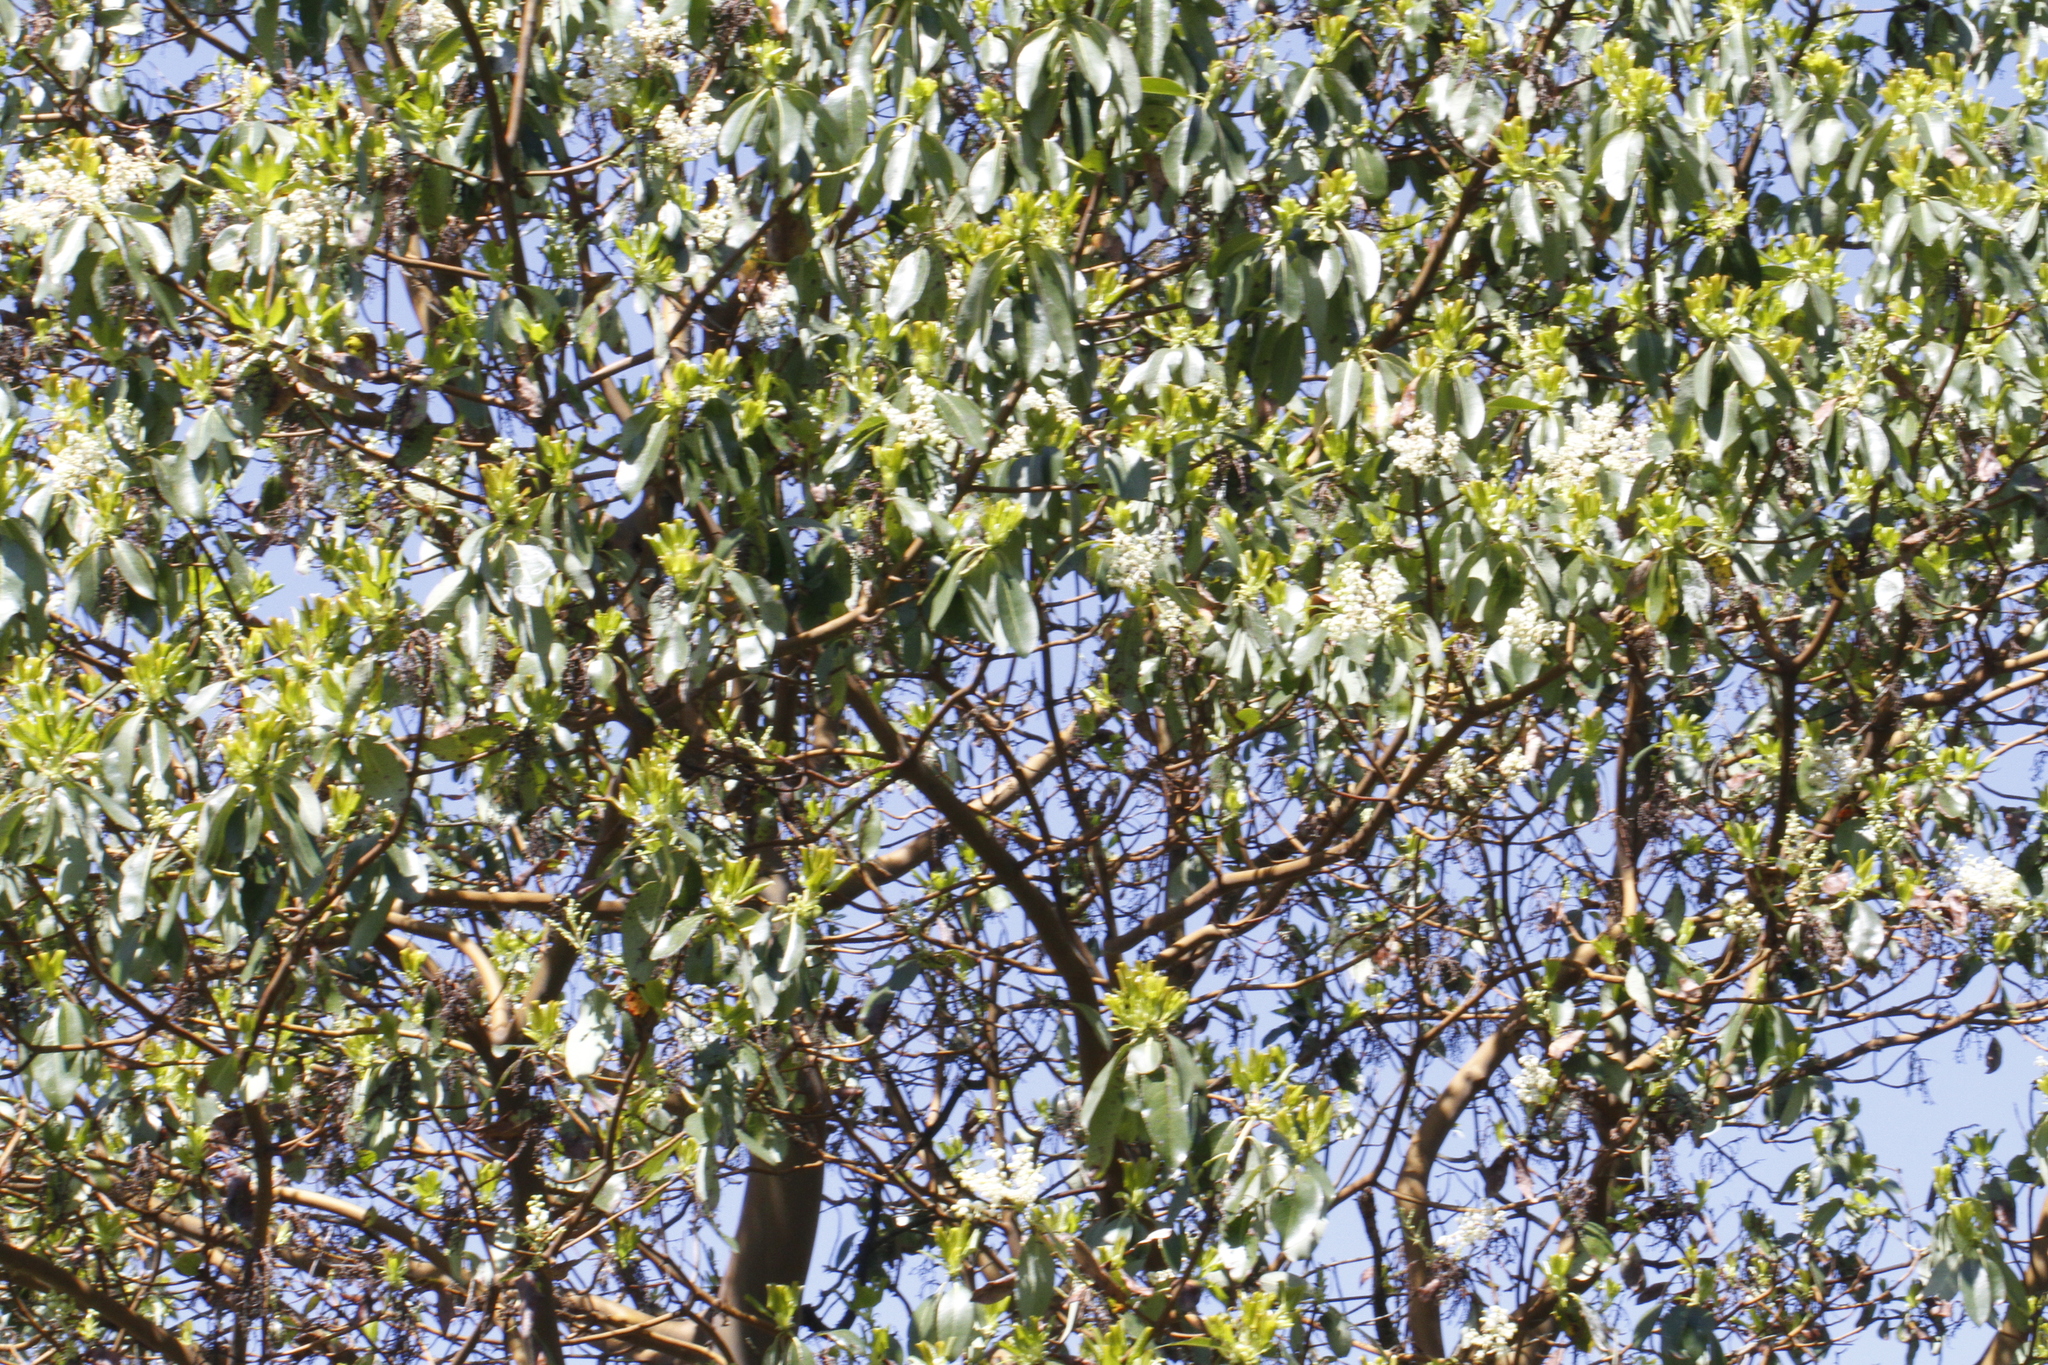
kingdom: Plantae
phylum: Tracheophyta
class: Magnoliopsida
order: Ericales
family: Ericaceae
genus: Arbutus
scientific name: Arbutus menziesii
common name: Pacific madrone
